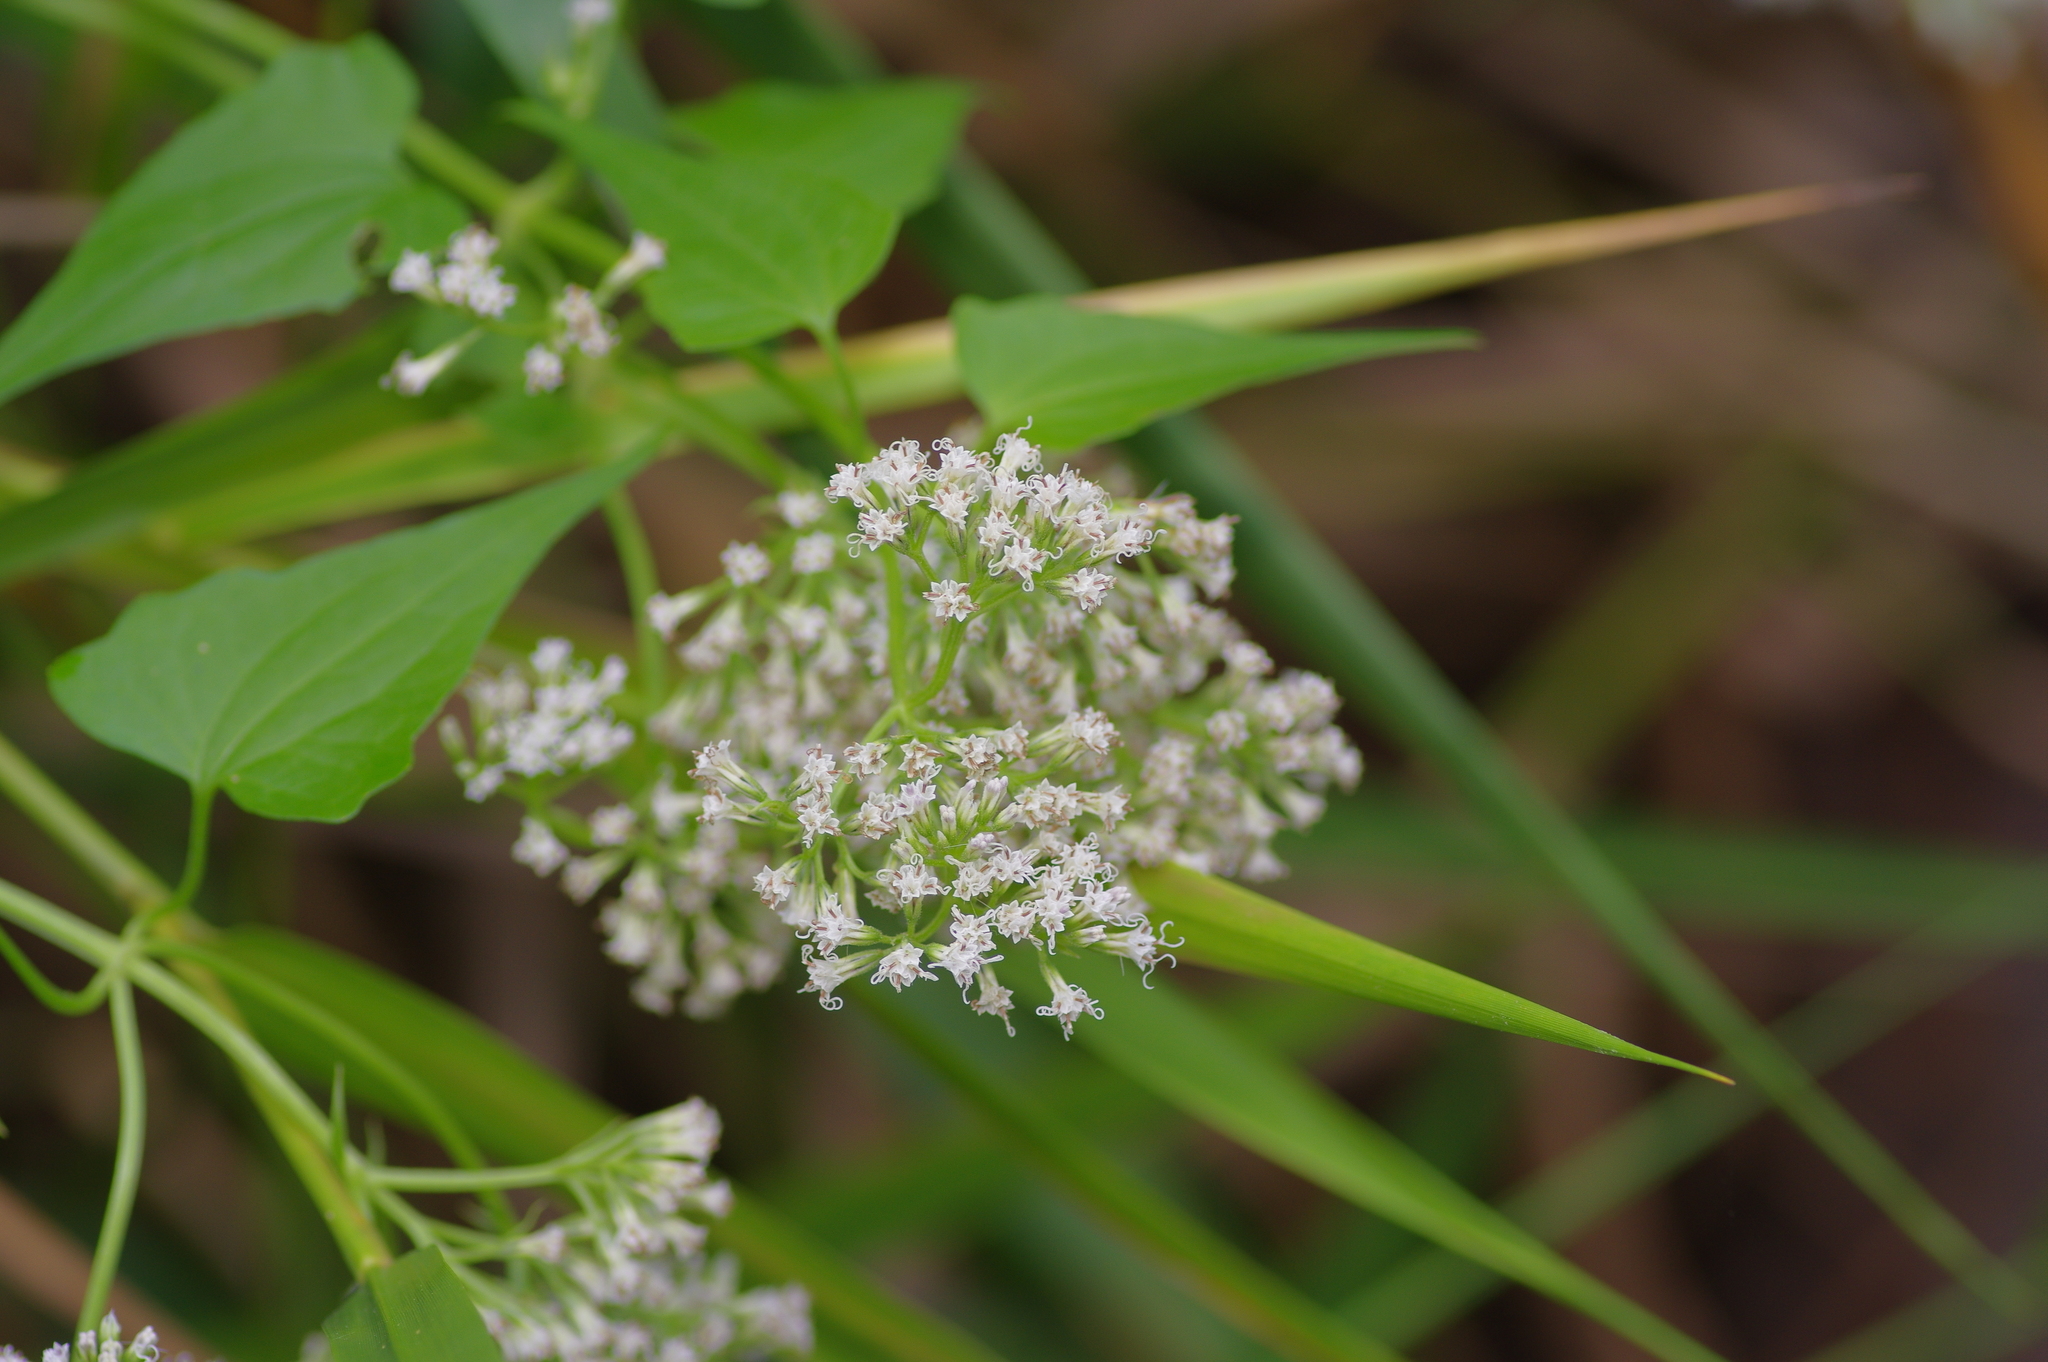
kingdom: Plantae
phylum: Tracheophyta
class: Magnoliopsida
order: Asterales
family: Asteraceae
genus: Mikania
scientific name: Mikania scandens
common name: Climbing hempvine
